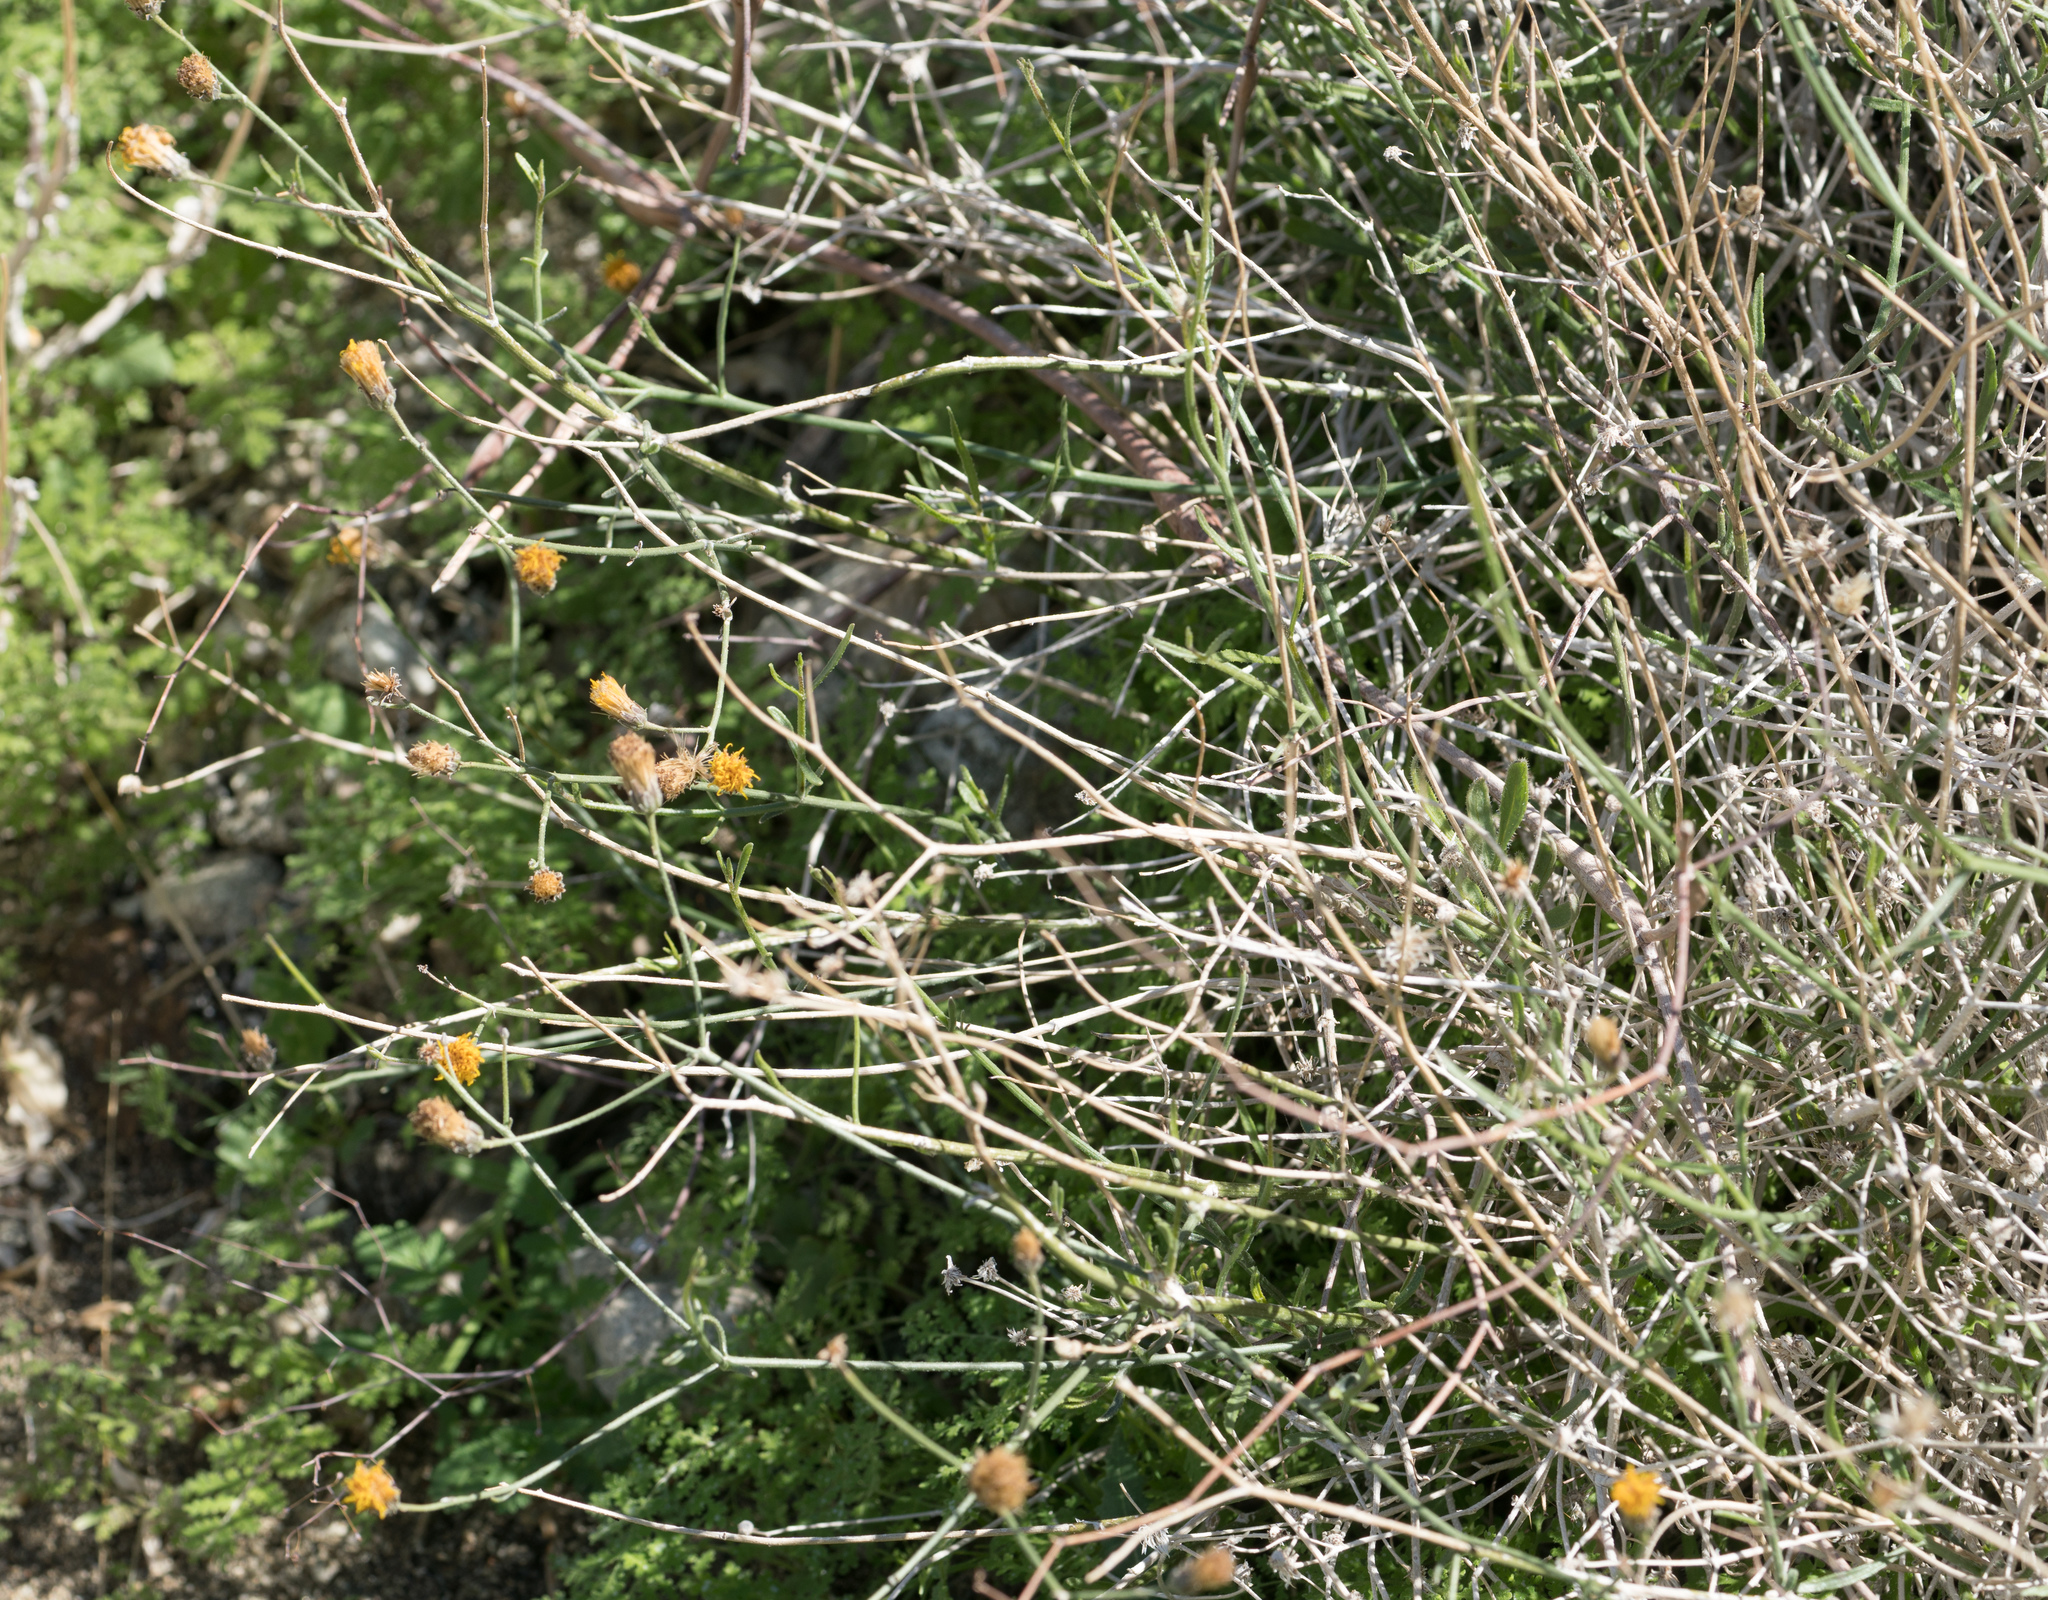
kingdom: Plantae
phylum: Tracheophyta
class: Magnoliopsida
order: Asterales
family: Asteraceae
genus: Bebbia
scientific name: Bebbia juncea
